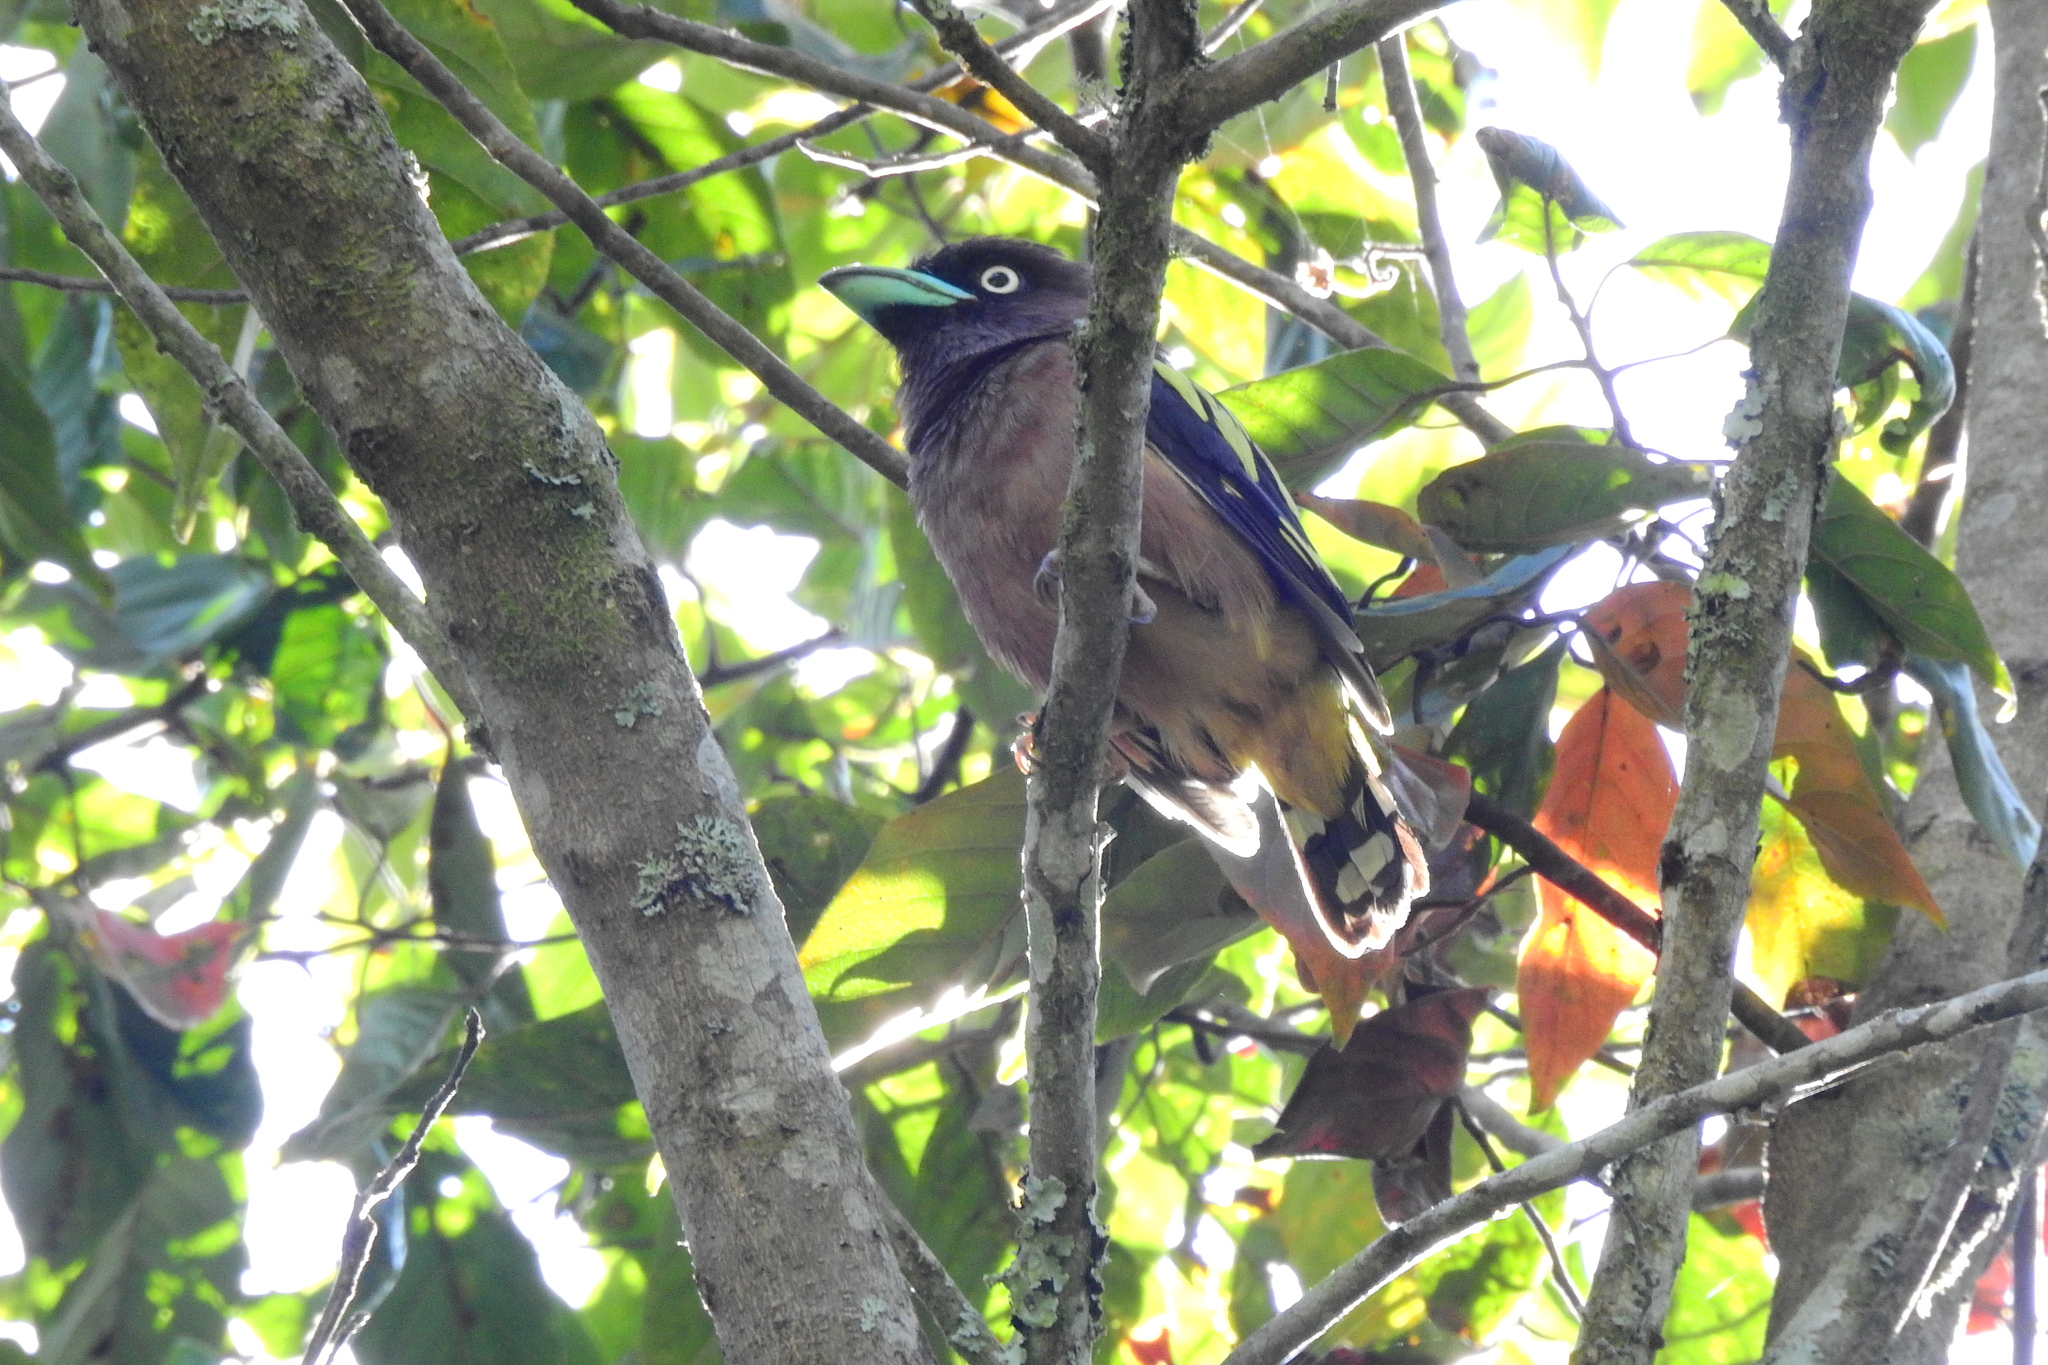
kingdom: Animalia
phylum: Chordata
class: Aves
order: Passeriformes
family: Eurylaimidae
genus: Eurylaimus
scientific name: Eurylaimus javanicus
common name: Banded broadbill
